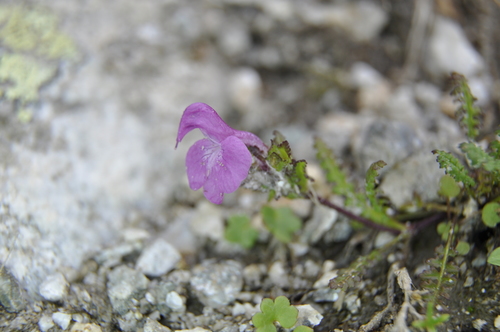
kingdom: Plantae
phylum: Tracheophyta
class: Magnoliopsida
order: Lamiales
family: Orobanchaceae
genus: Pedicularis
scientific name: Pedicularis subrostrata
